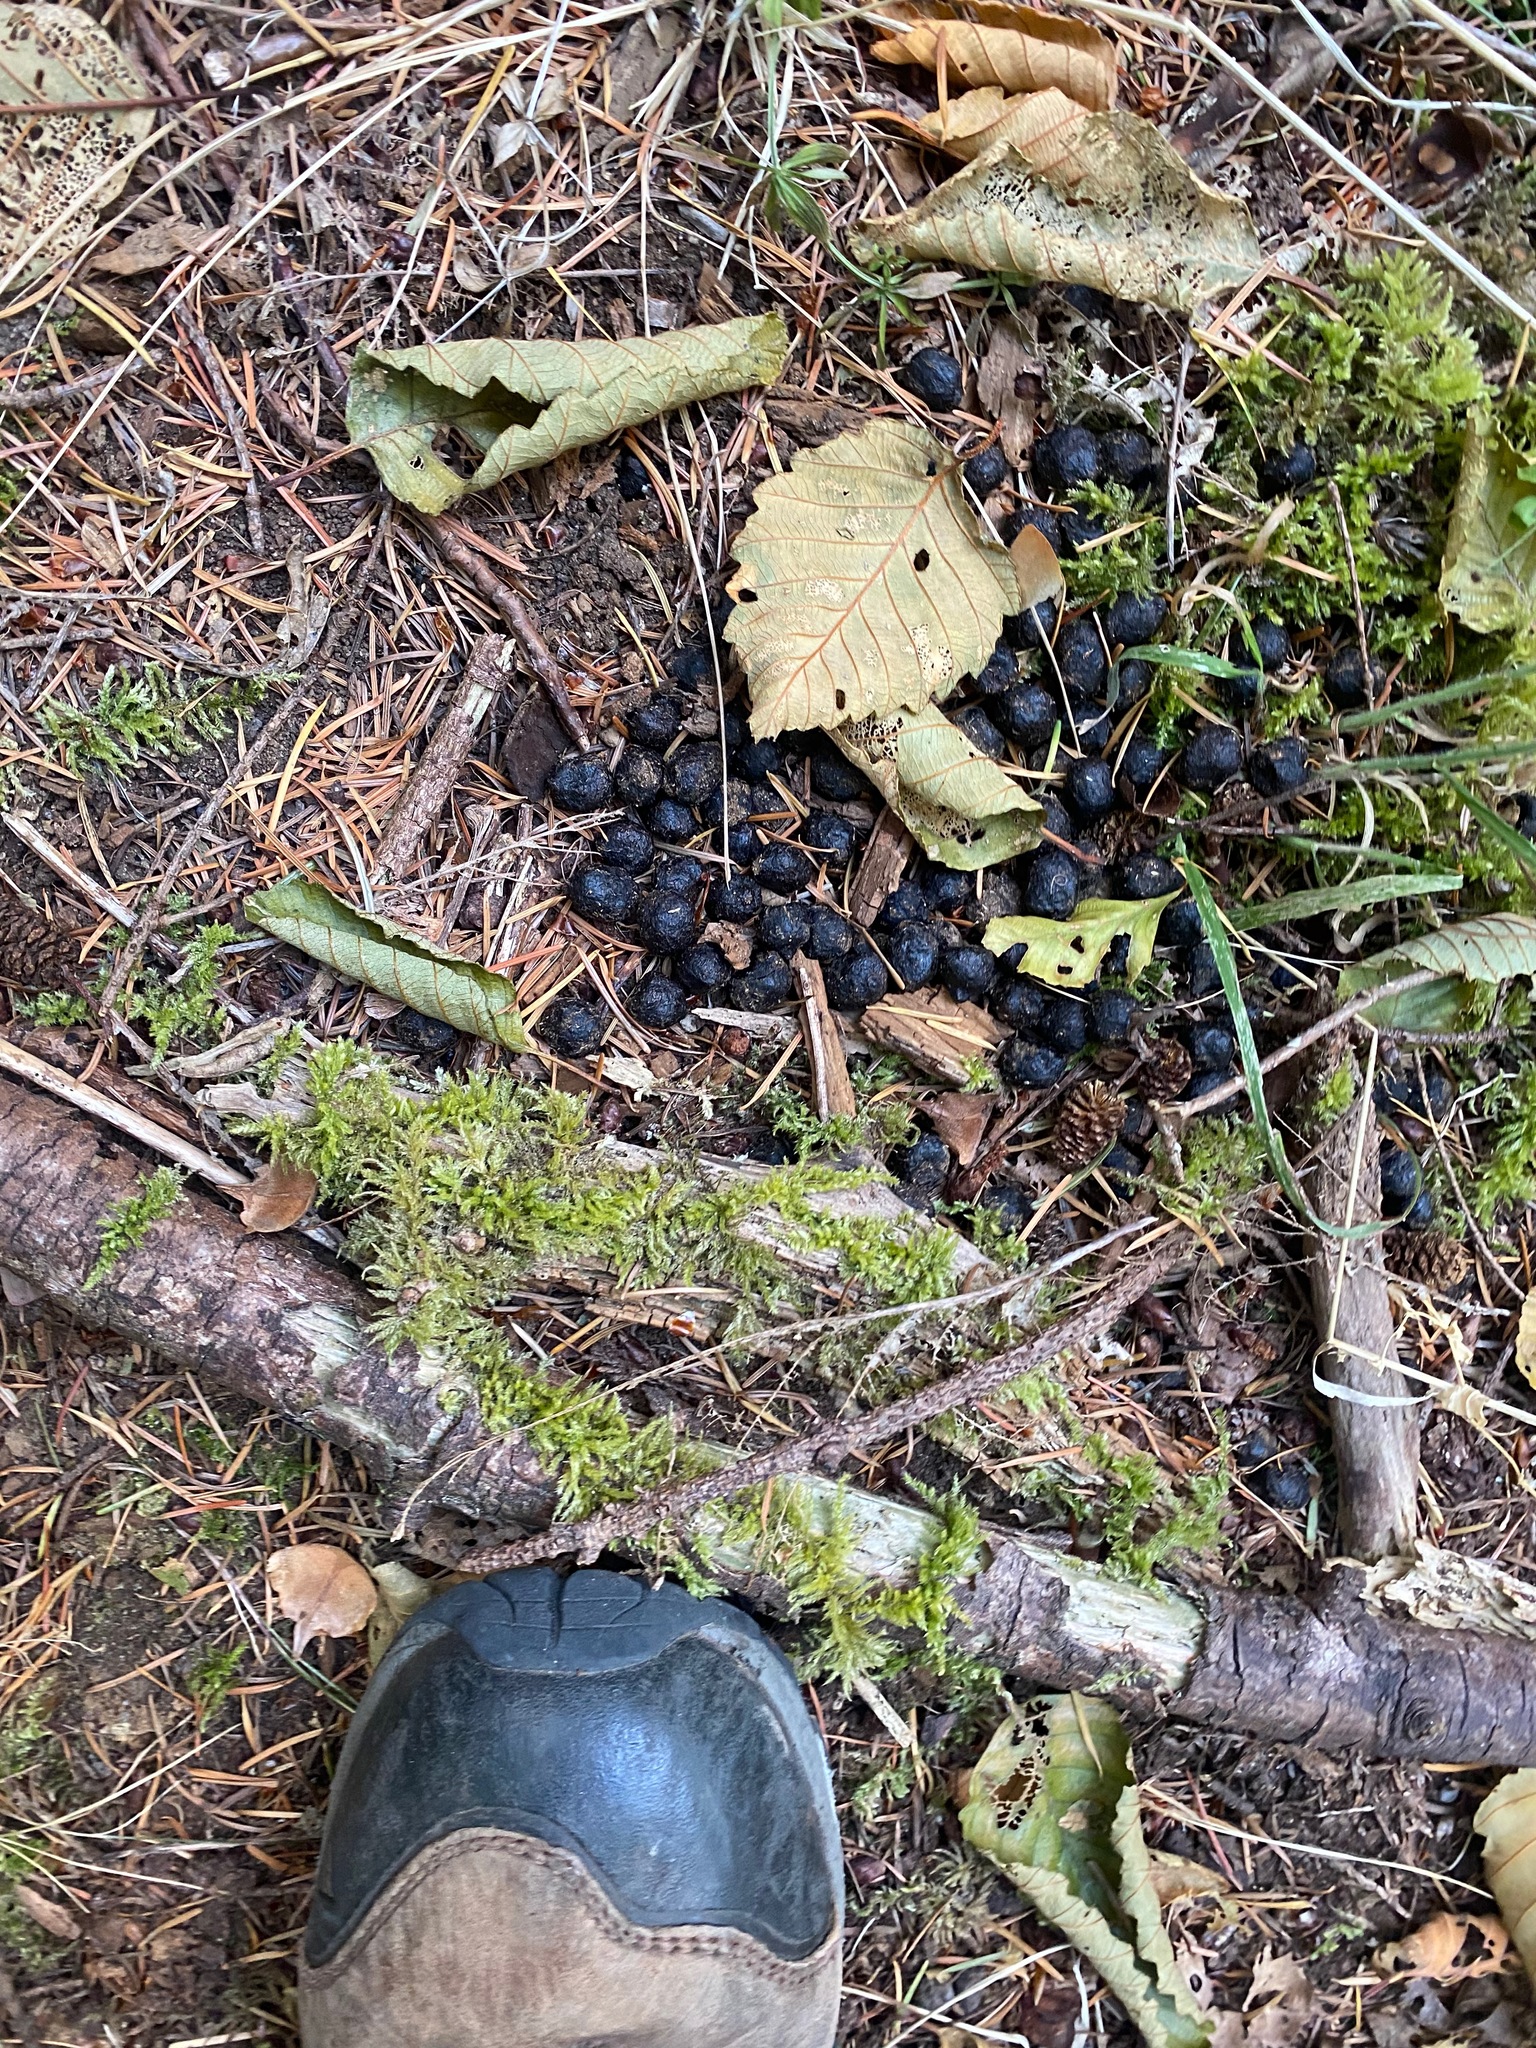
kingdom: Animalia
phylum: Chordata
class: Mammalia
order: Artiodactyla
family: Cervidae
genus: Odocoileus
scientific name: Odocoileus hemionus
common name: Mule deer
